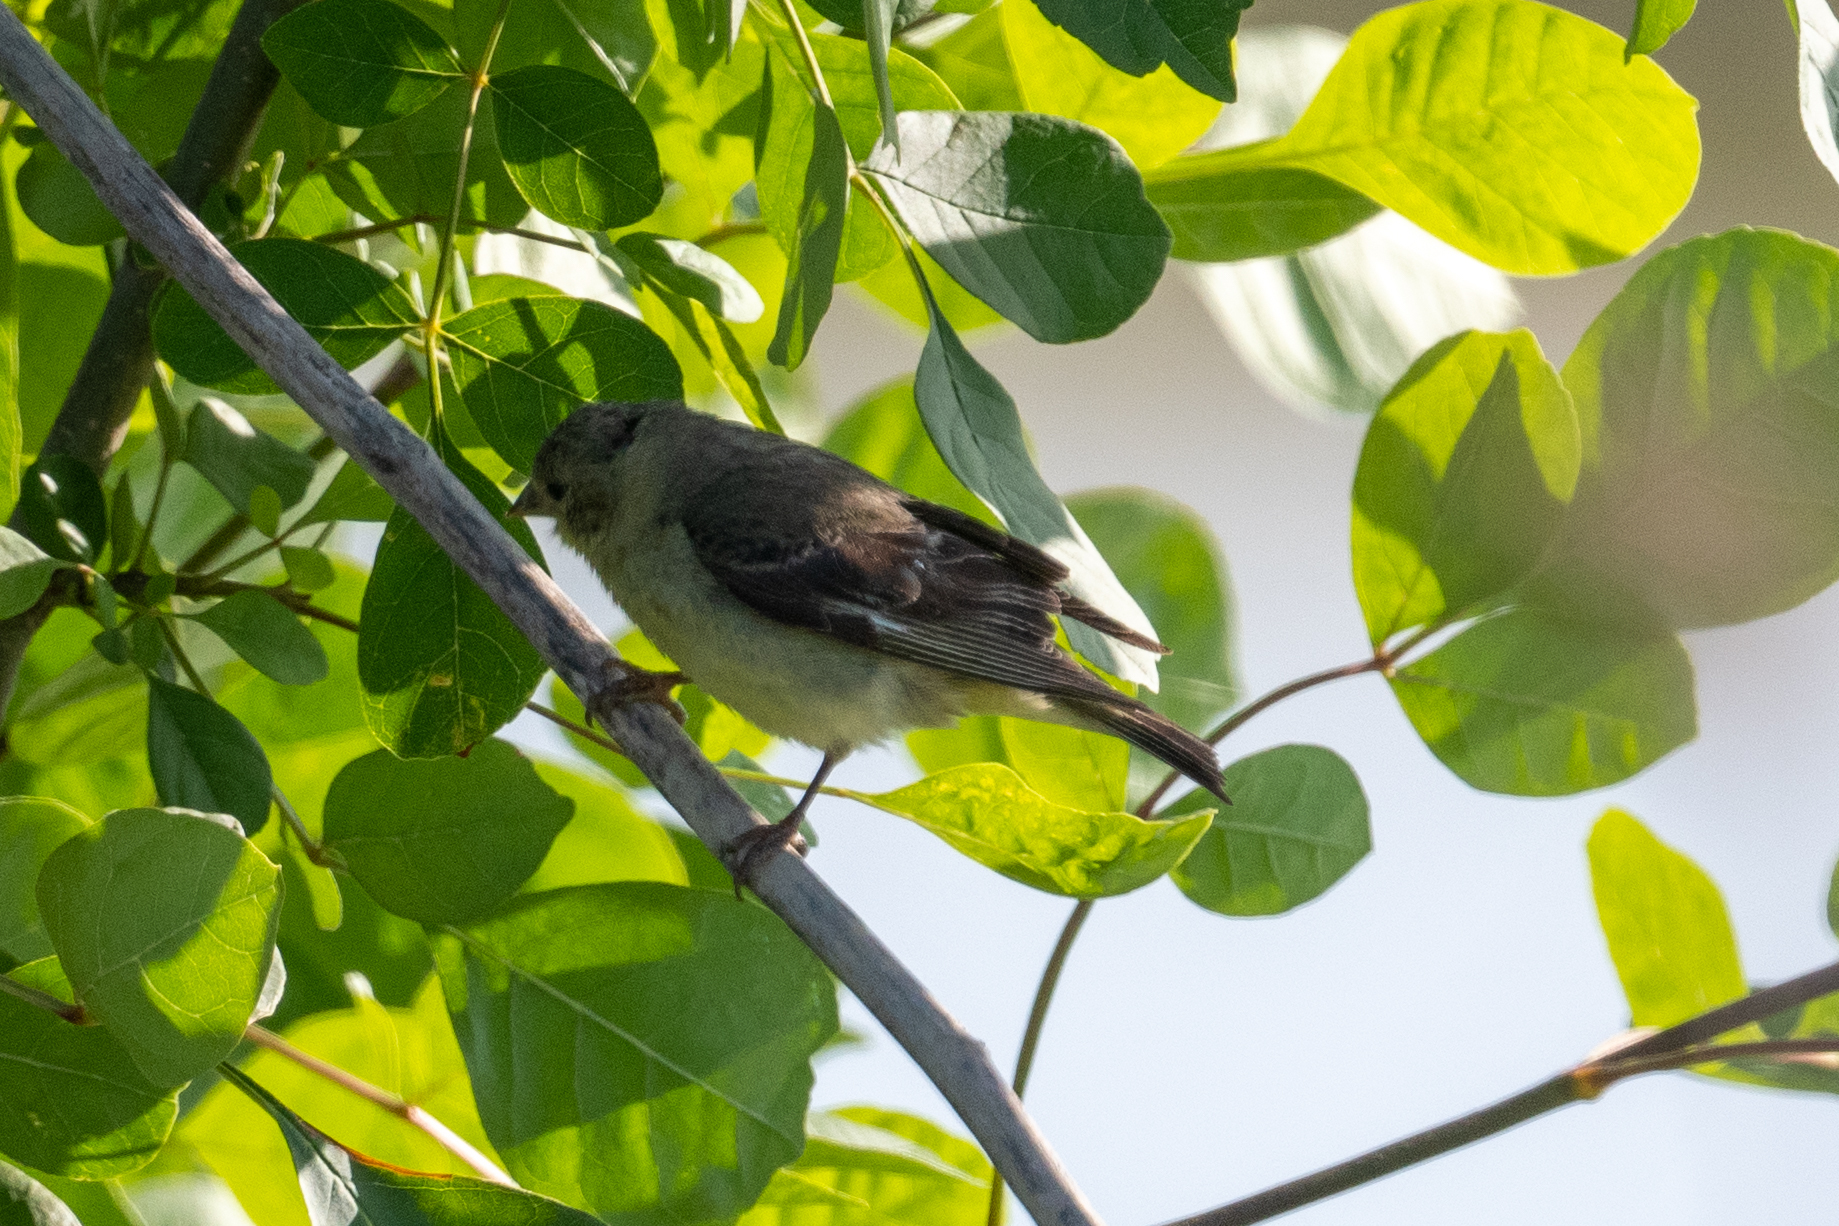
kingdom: Animalia
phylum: Chordata
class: Aves
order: Passeriformes
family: Fringillidae
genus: Spinus
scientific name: Spinus psaltria
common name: Lesser goldfinch
